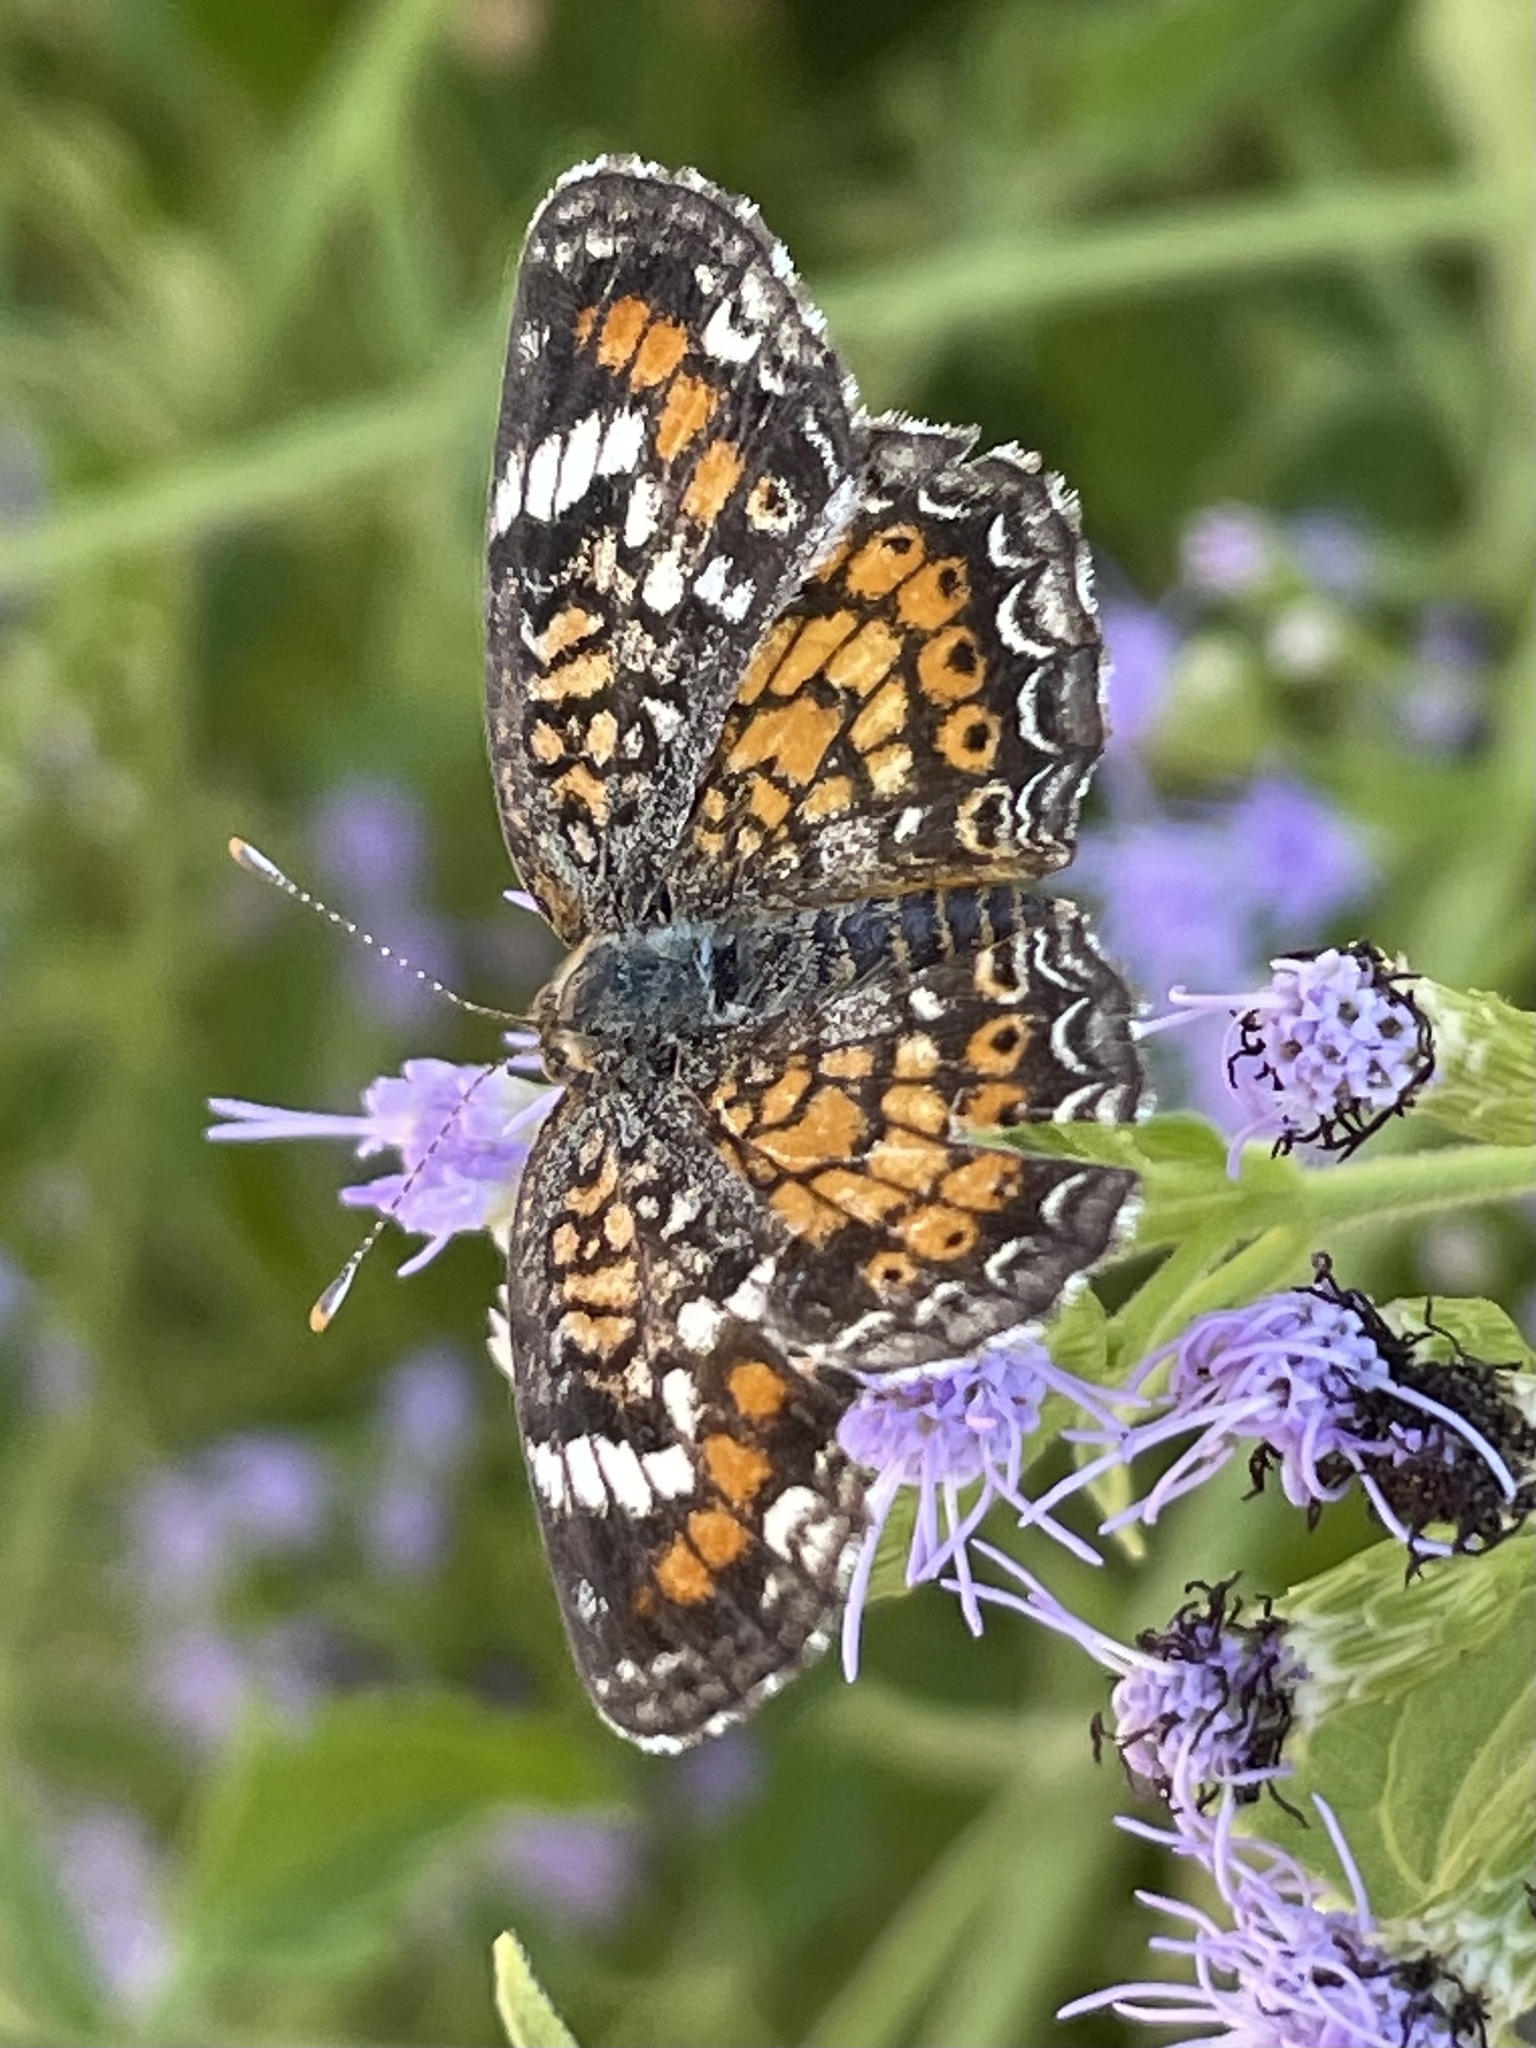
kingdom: Animalia
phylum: Arthropoda
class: Insecta
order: Lepidoptera
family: Nymphalidae
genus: Phyciodes
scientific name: Phyciodes phaon
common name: Phaon crescent
